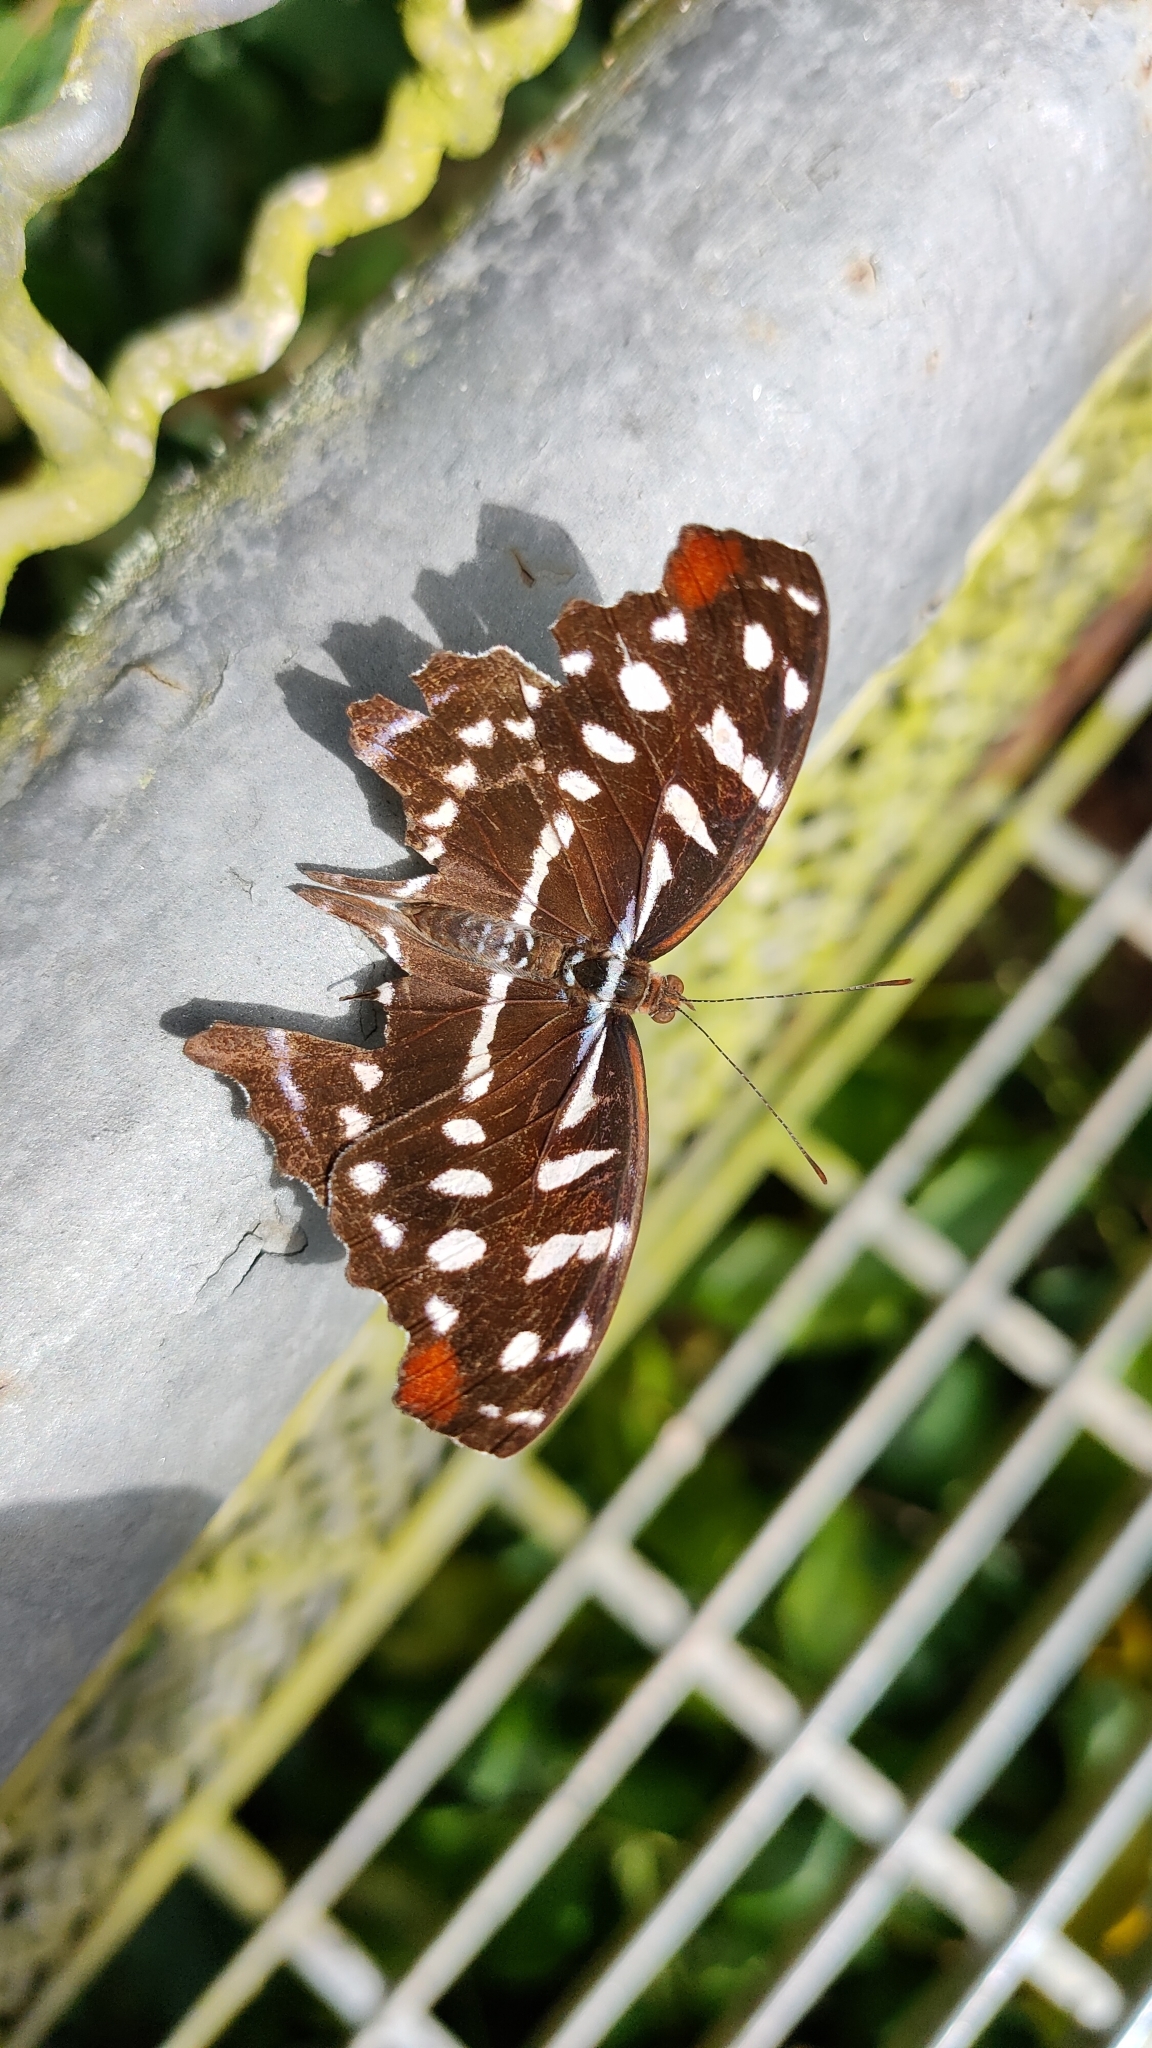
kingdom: Animalia
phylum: Arthropoda
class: Insecta
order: Lepidoptera
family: Nymphalidae
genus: Myscelia
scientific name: Myscelia orsis
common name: Orsis bluewing
